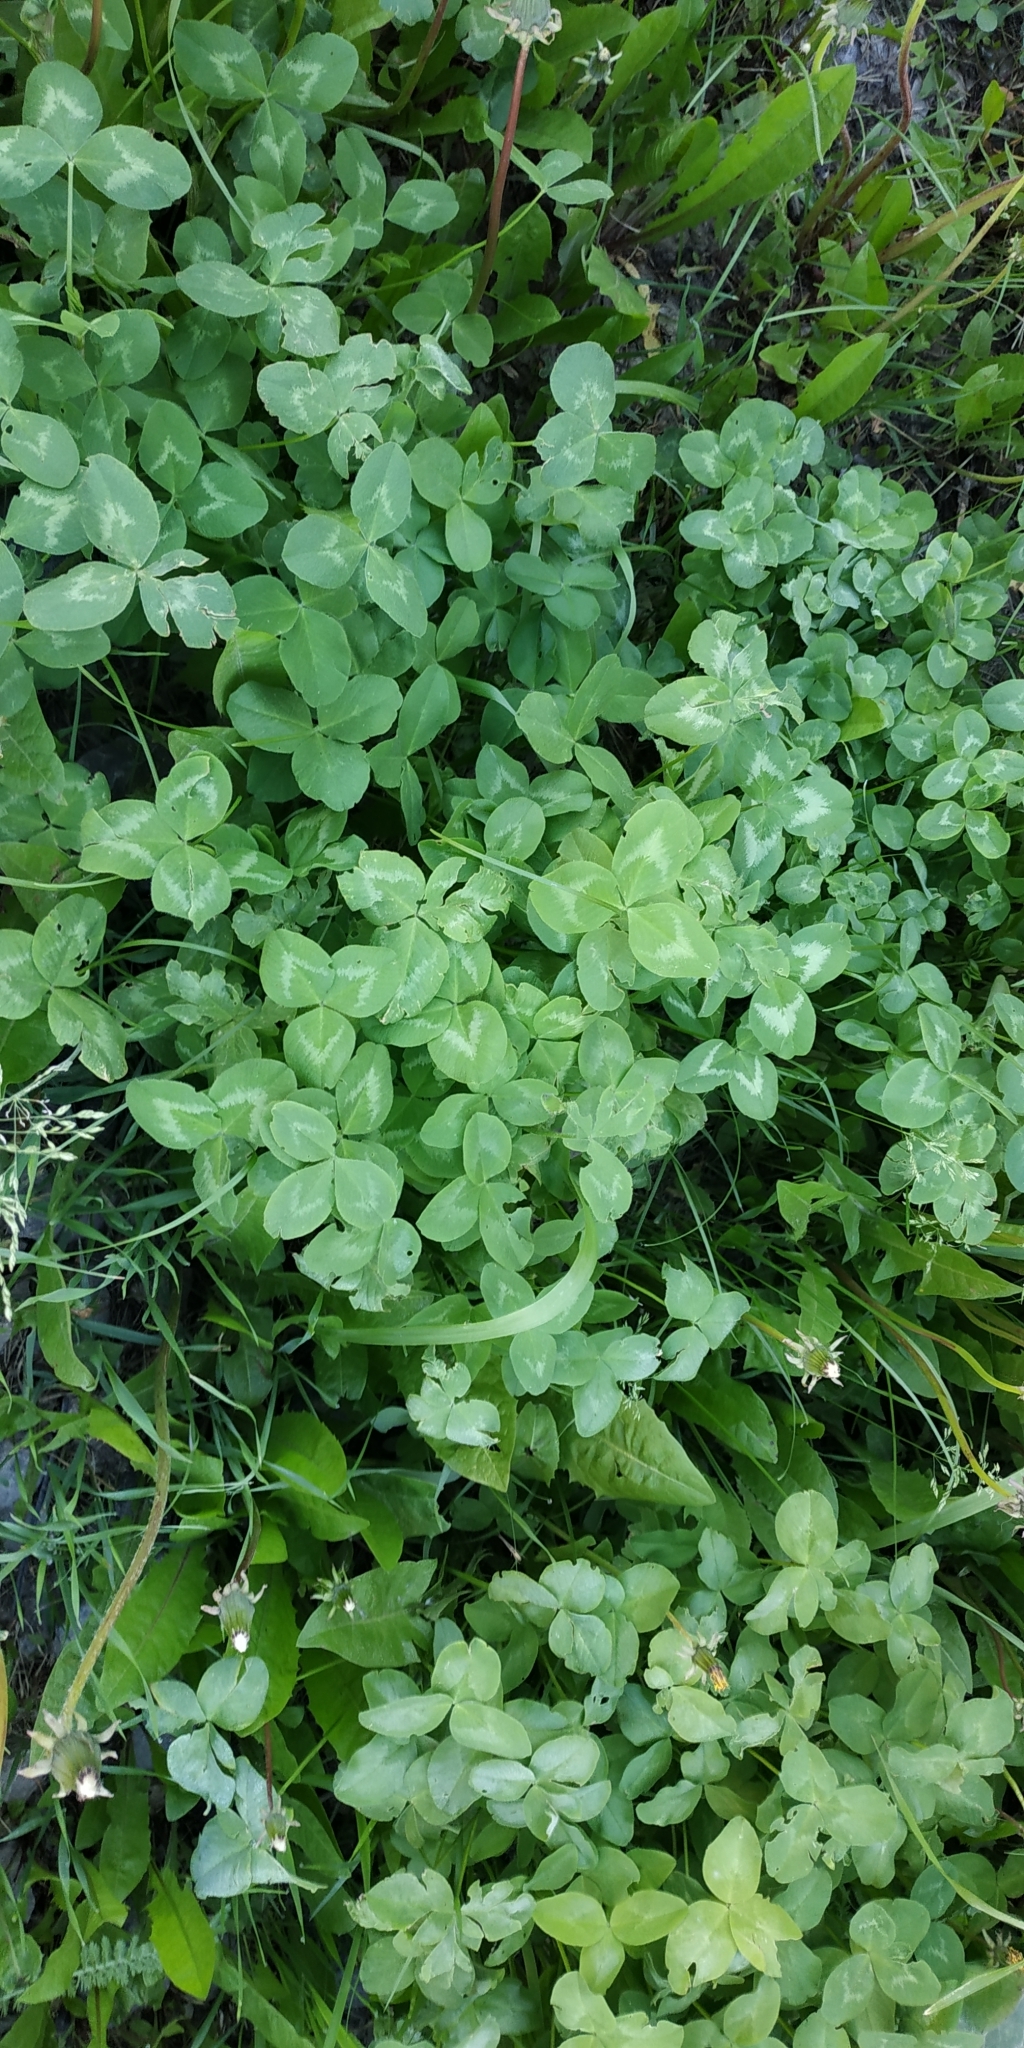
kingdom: Plantae
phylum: Tracheophyta
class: Magnoliopsida
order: Fabales
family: Fabaceae
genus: Trifolium
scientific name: Trifolium pratense
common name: Red clover
